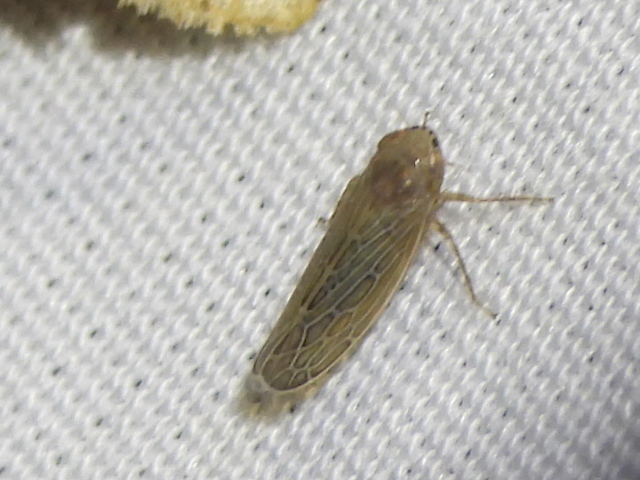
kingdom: Animalia
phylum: Arthropoda
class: Insecta
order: Hemiptera
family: Cicadellidae
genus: Kansendria
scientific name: Kansendria kansiensis
